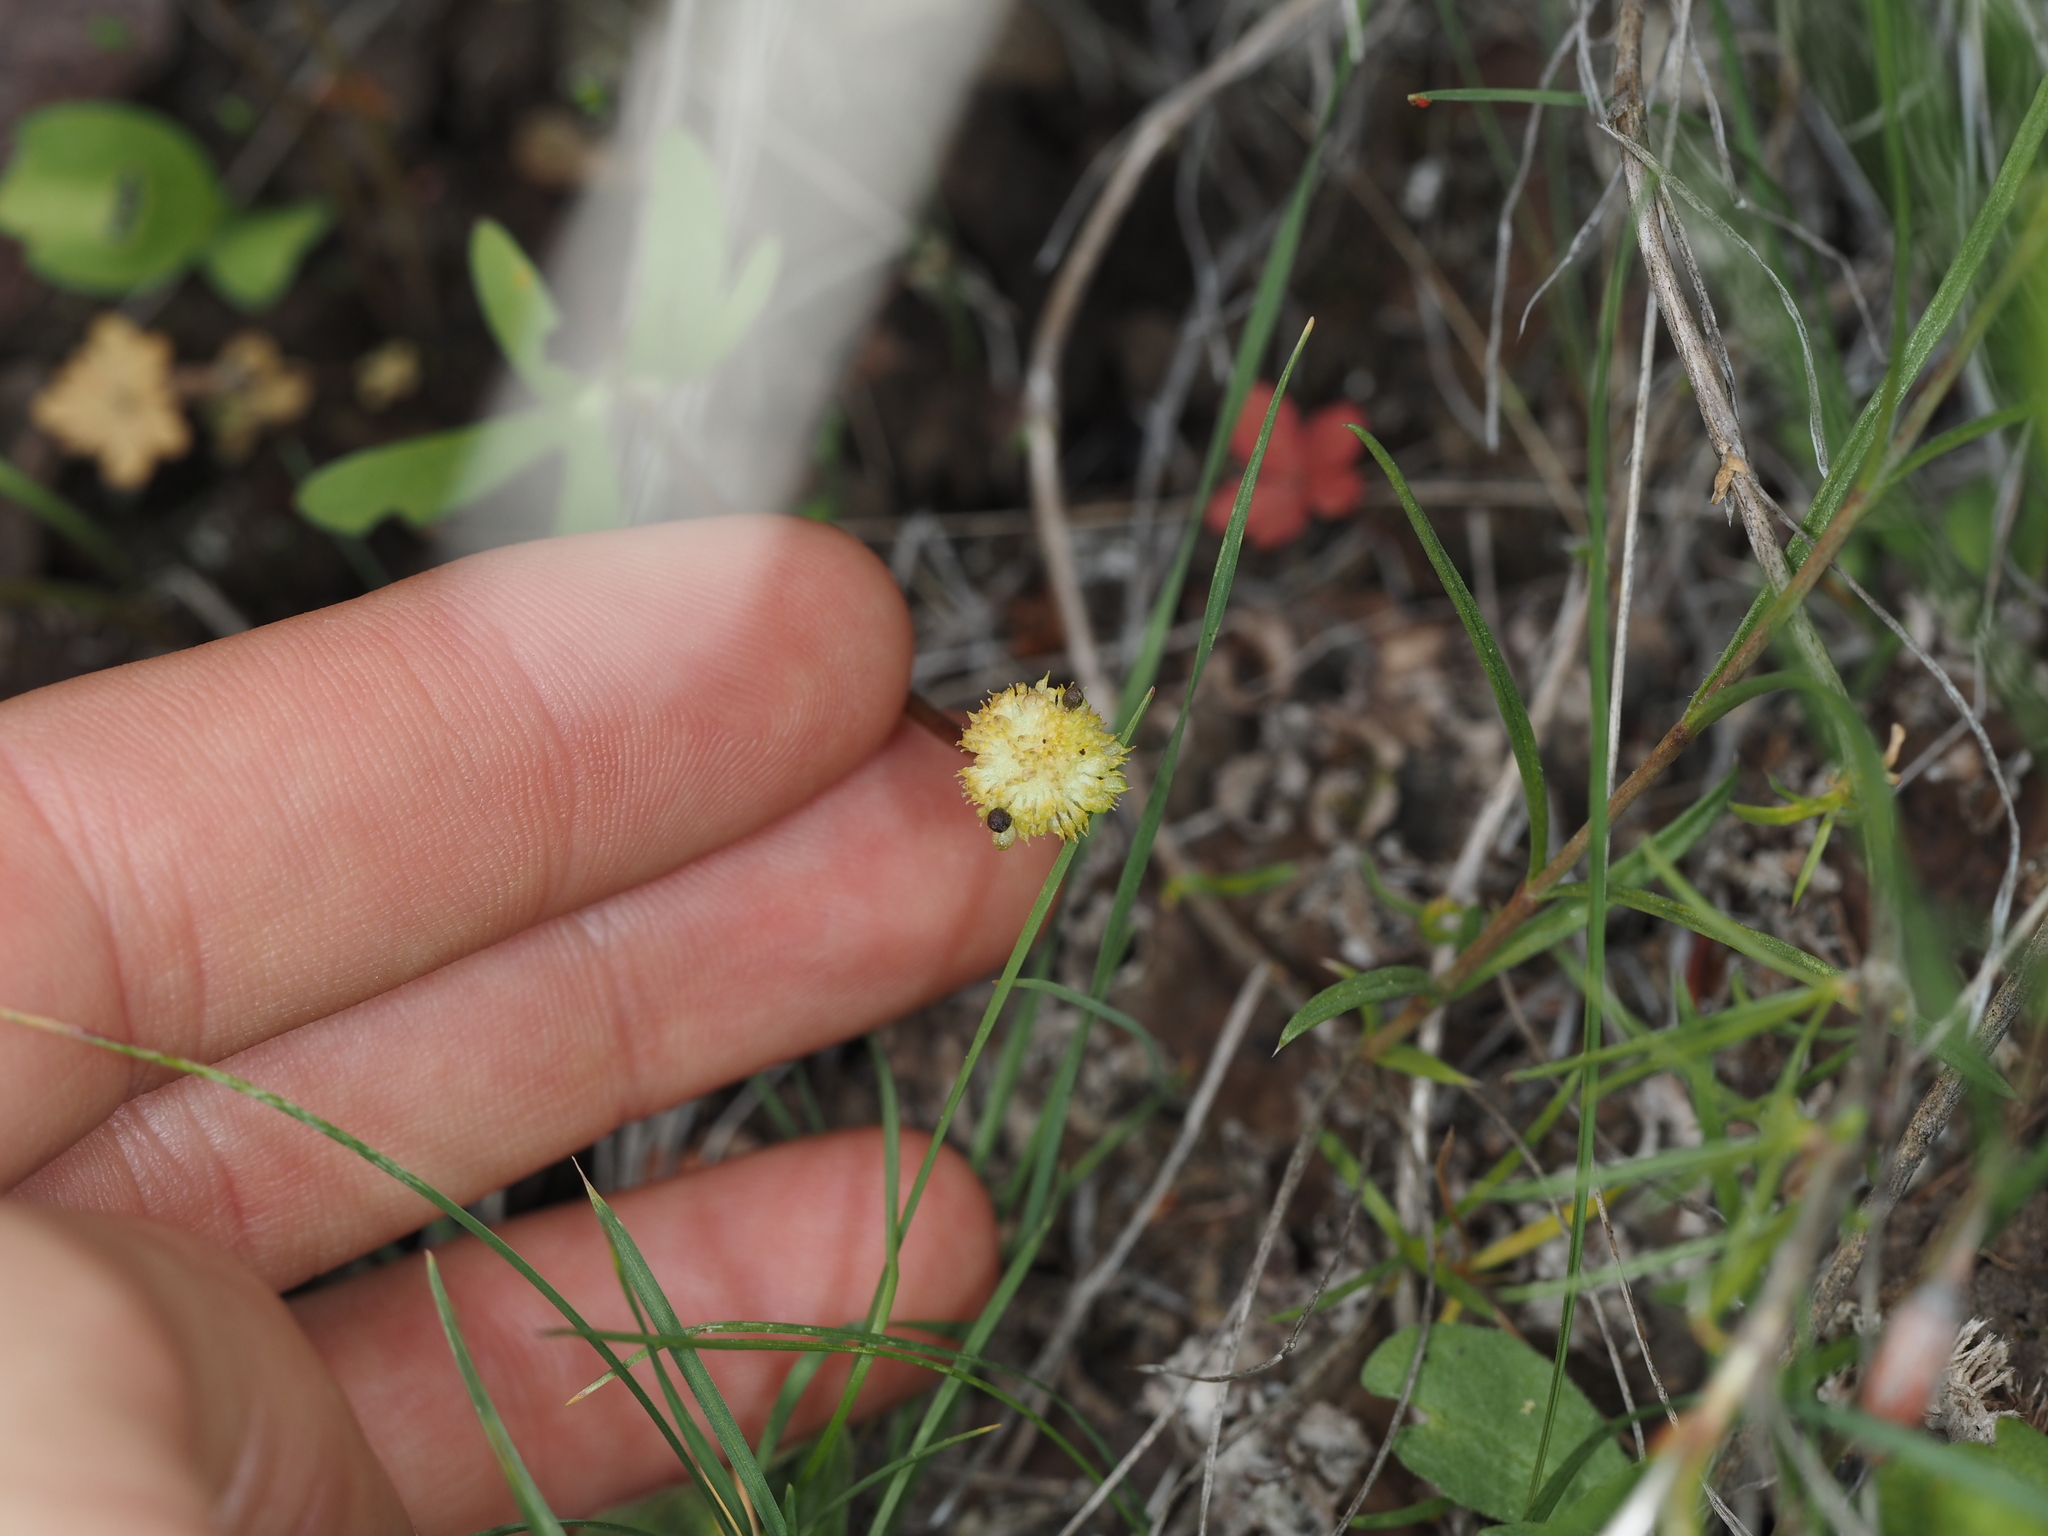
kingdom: Plantae
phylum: Tracheophyta
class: Magnoliopsida
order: Ranunculales
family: Ranunculaceae
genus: Ranunculus
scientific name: Ranunculus glaberrimus
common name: Sagebrush buttercup
